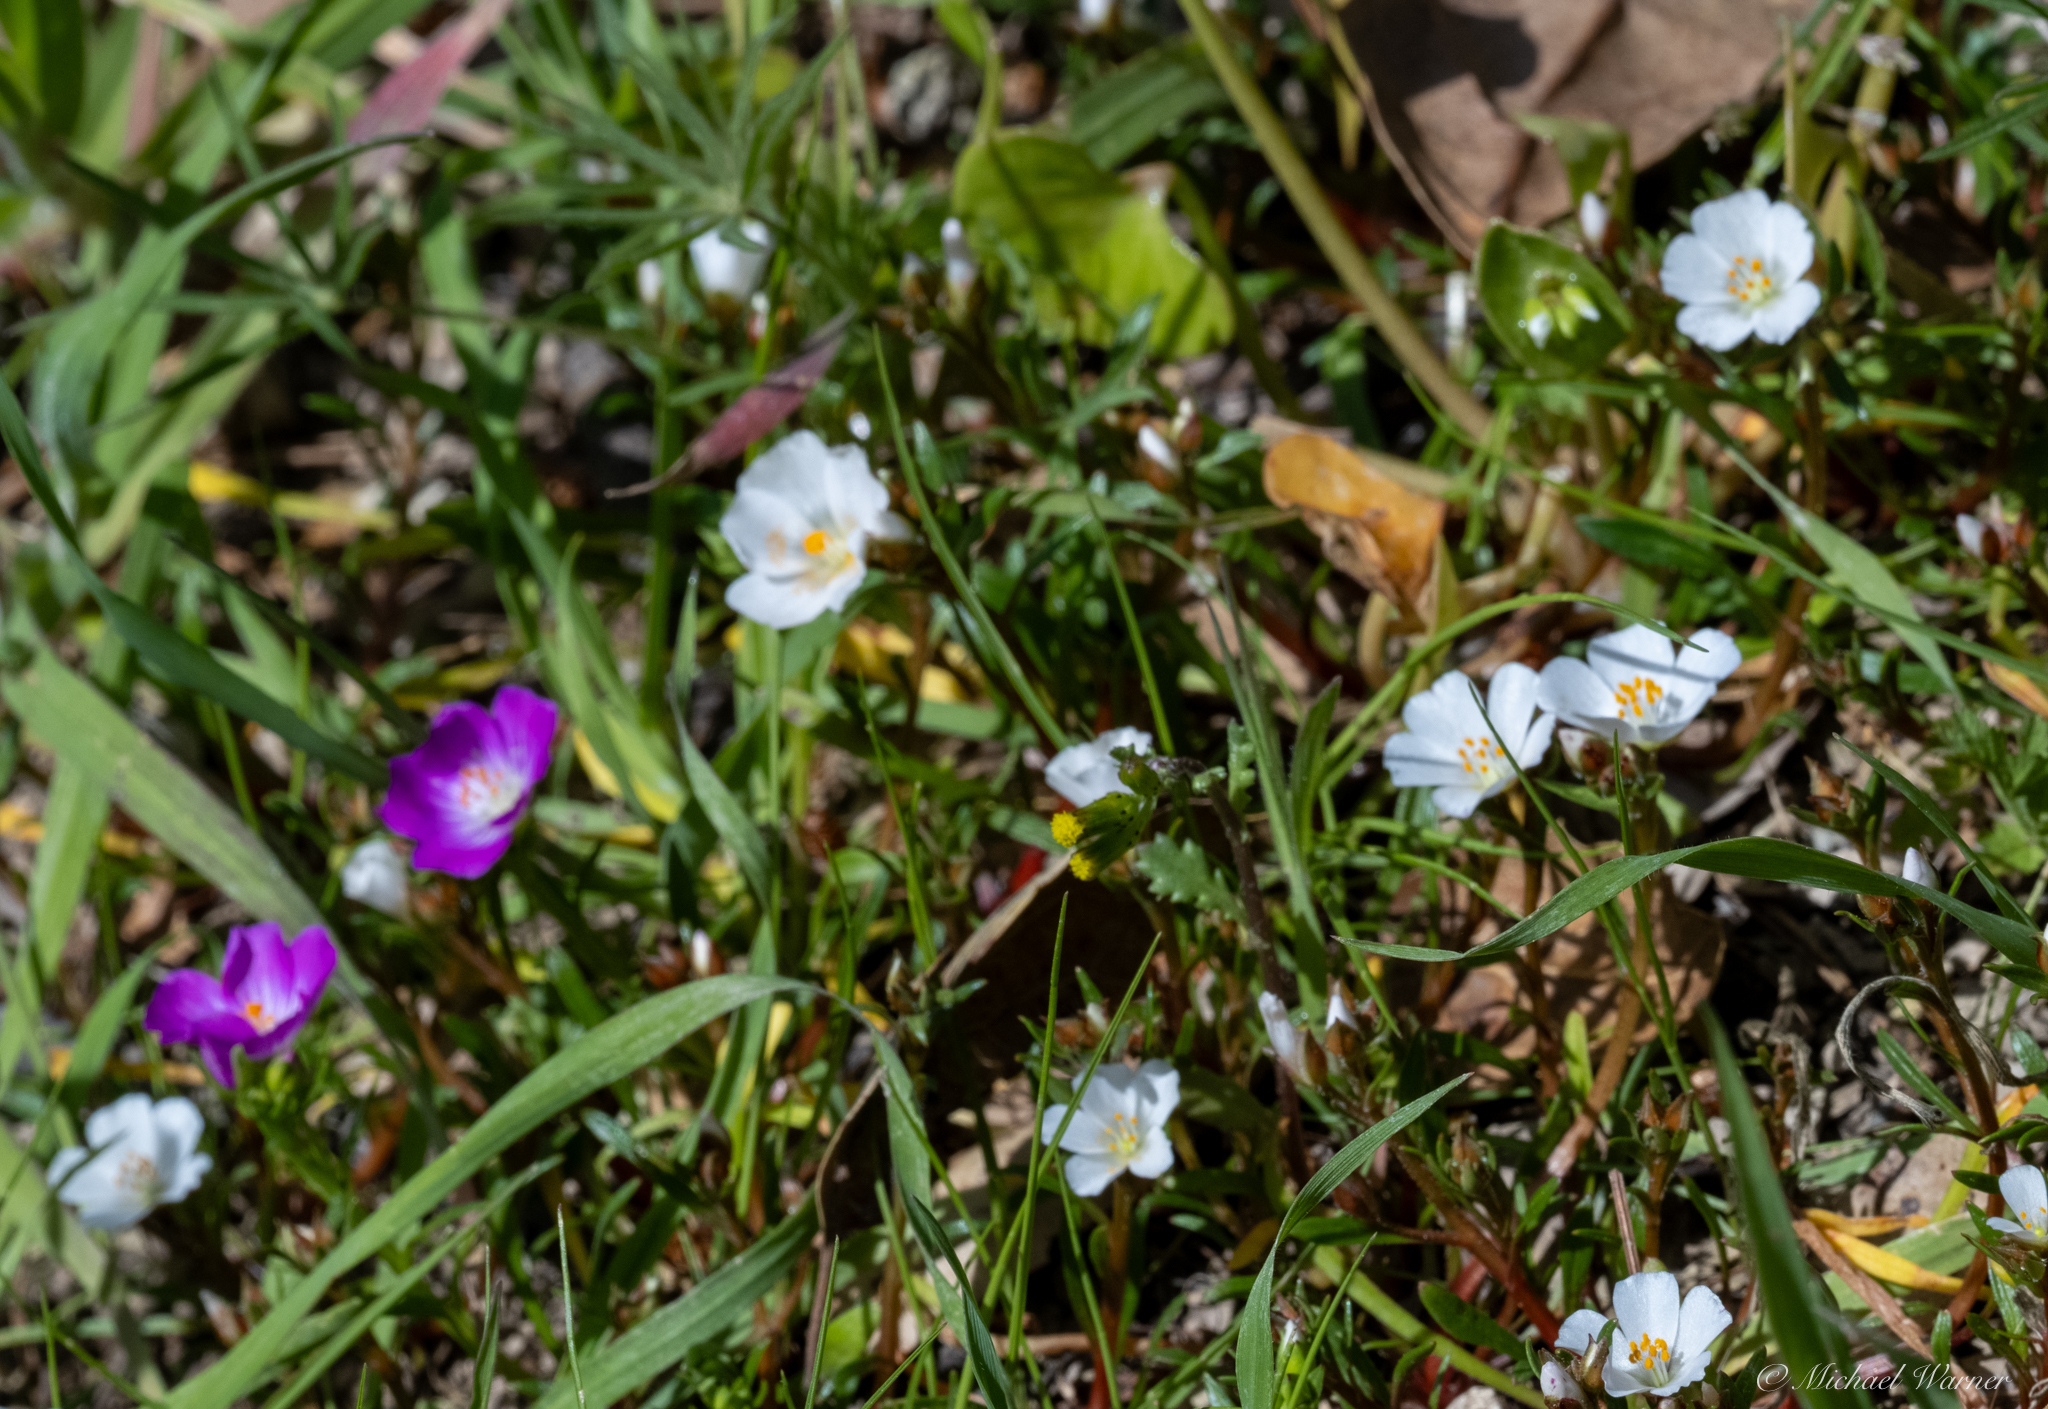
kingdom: Plantae
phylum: Tracheophyta
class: Magnoliopsida
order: Caryophyllales
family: Montiaceae
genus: Calandrinia
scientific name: Calandrinia menziesii
